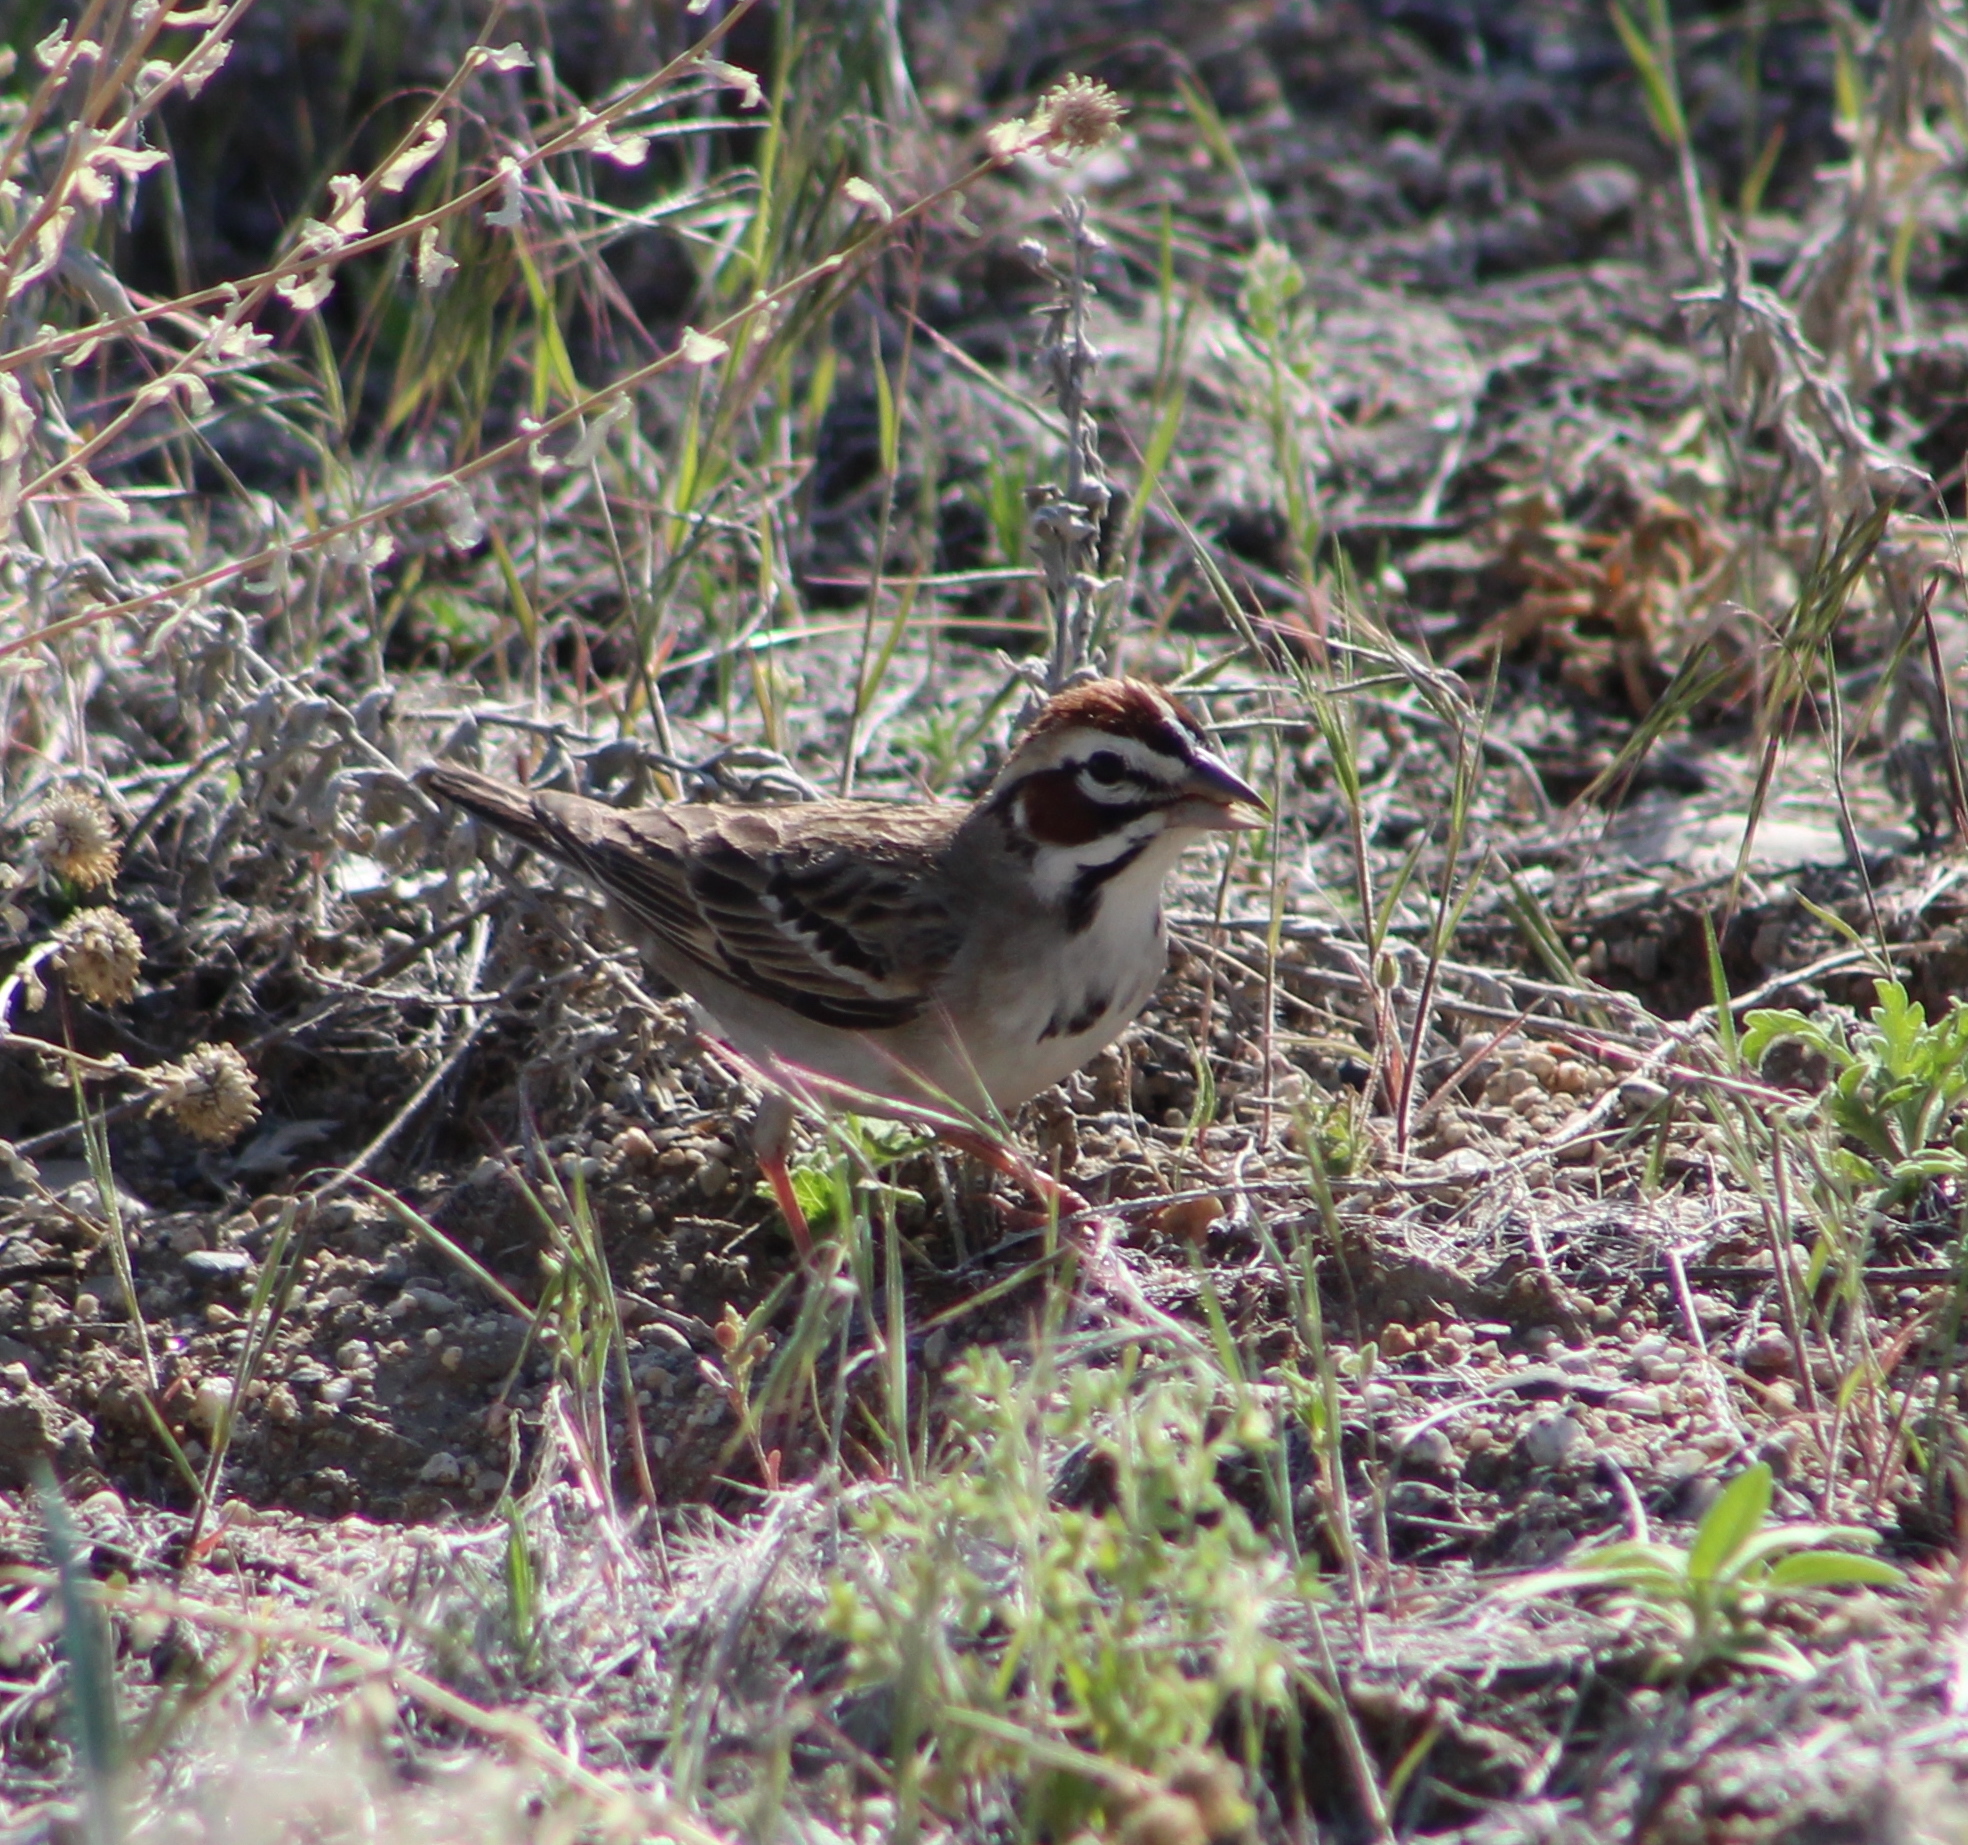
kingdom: Animalia
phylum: Chordata
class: Aves
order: Passeriformes
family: Passerellidae
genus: Chondestes
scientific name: Chondestes grammacus
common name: Lark sparrow
